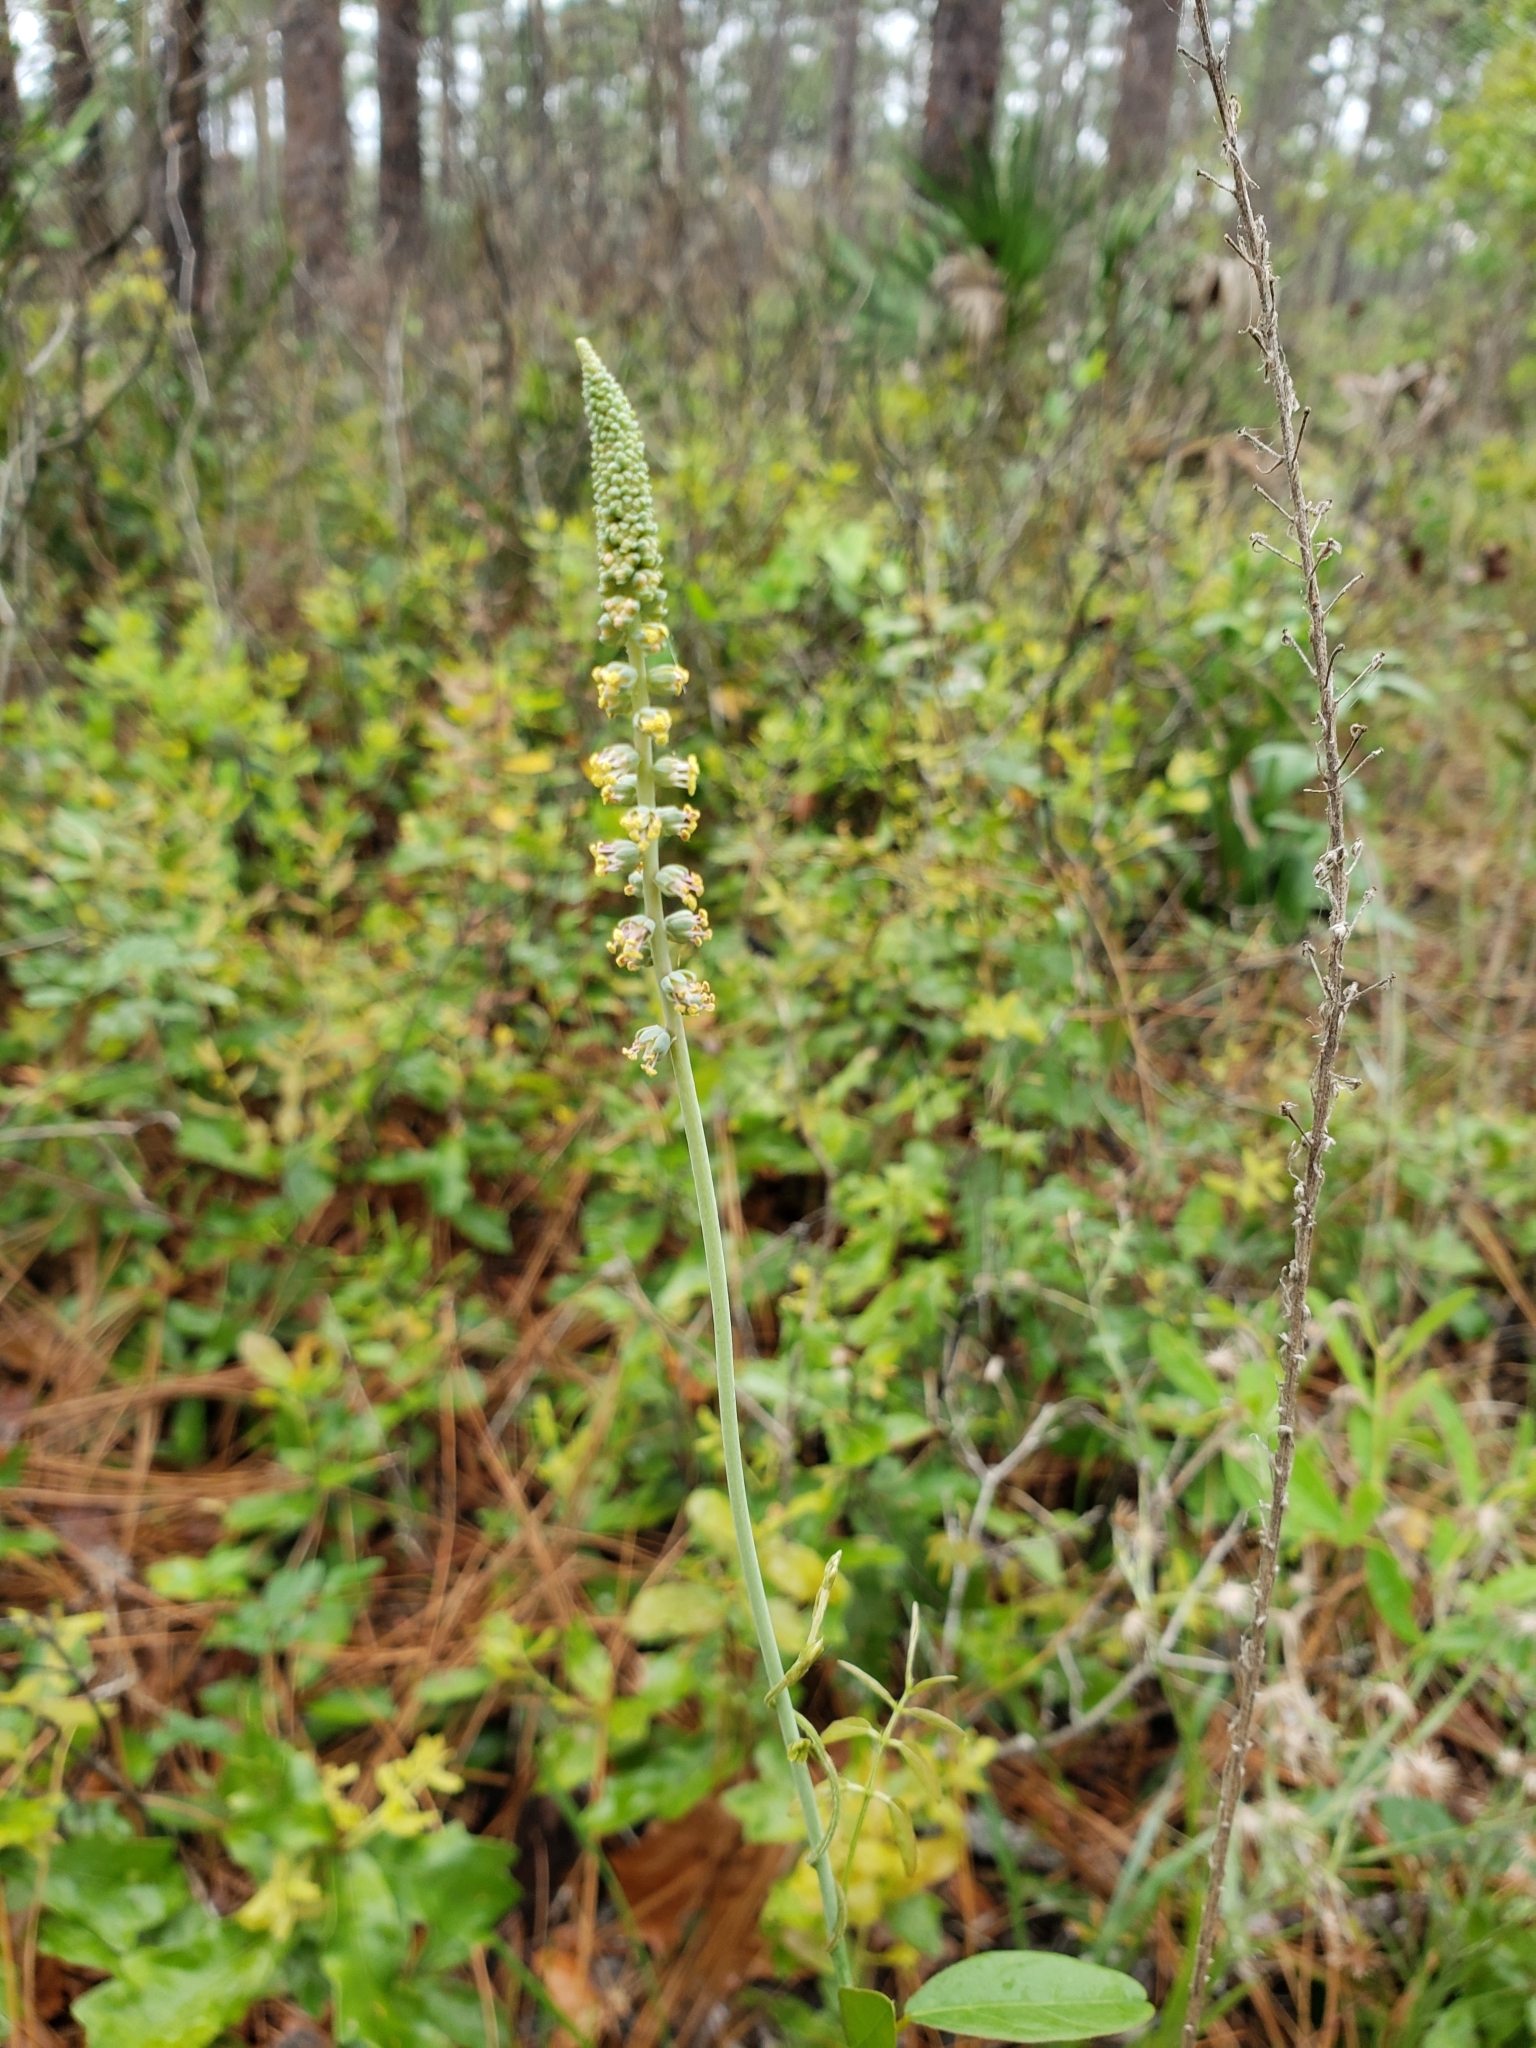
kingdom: Plantae
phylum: Tracheophyta
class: Liliopsida
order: Liliales
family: Melanthiaceae
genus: Schoenocaulon
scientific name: Schoenocaulon dubium
